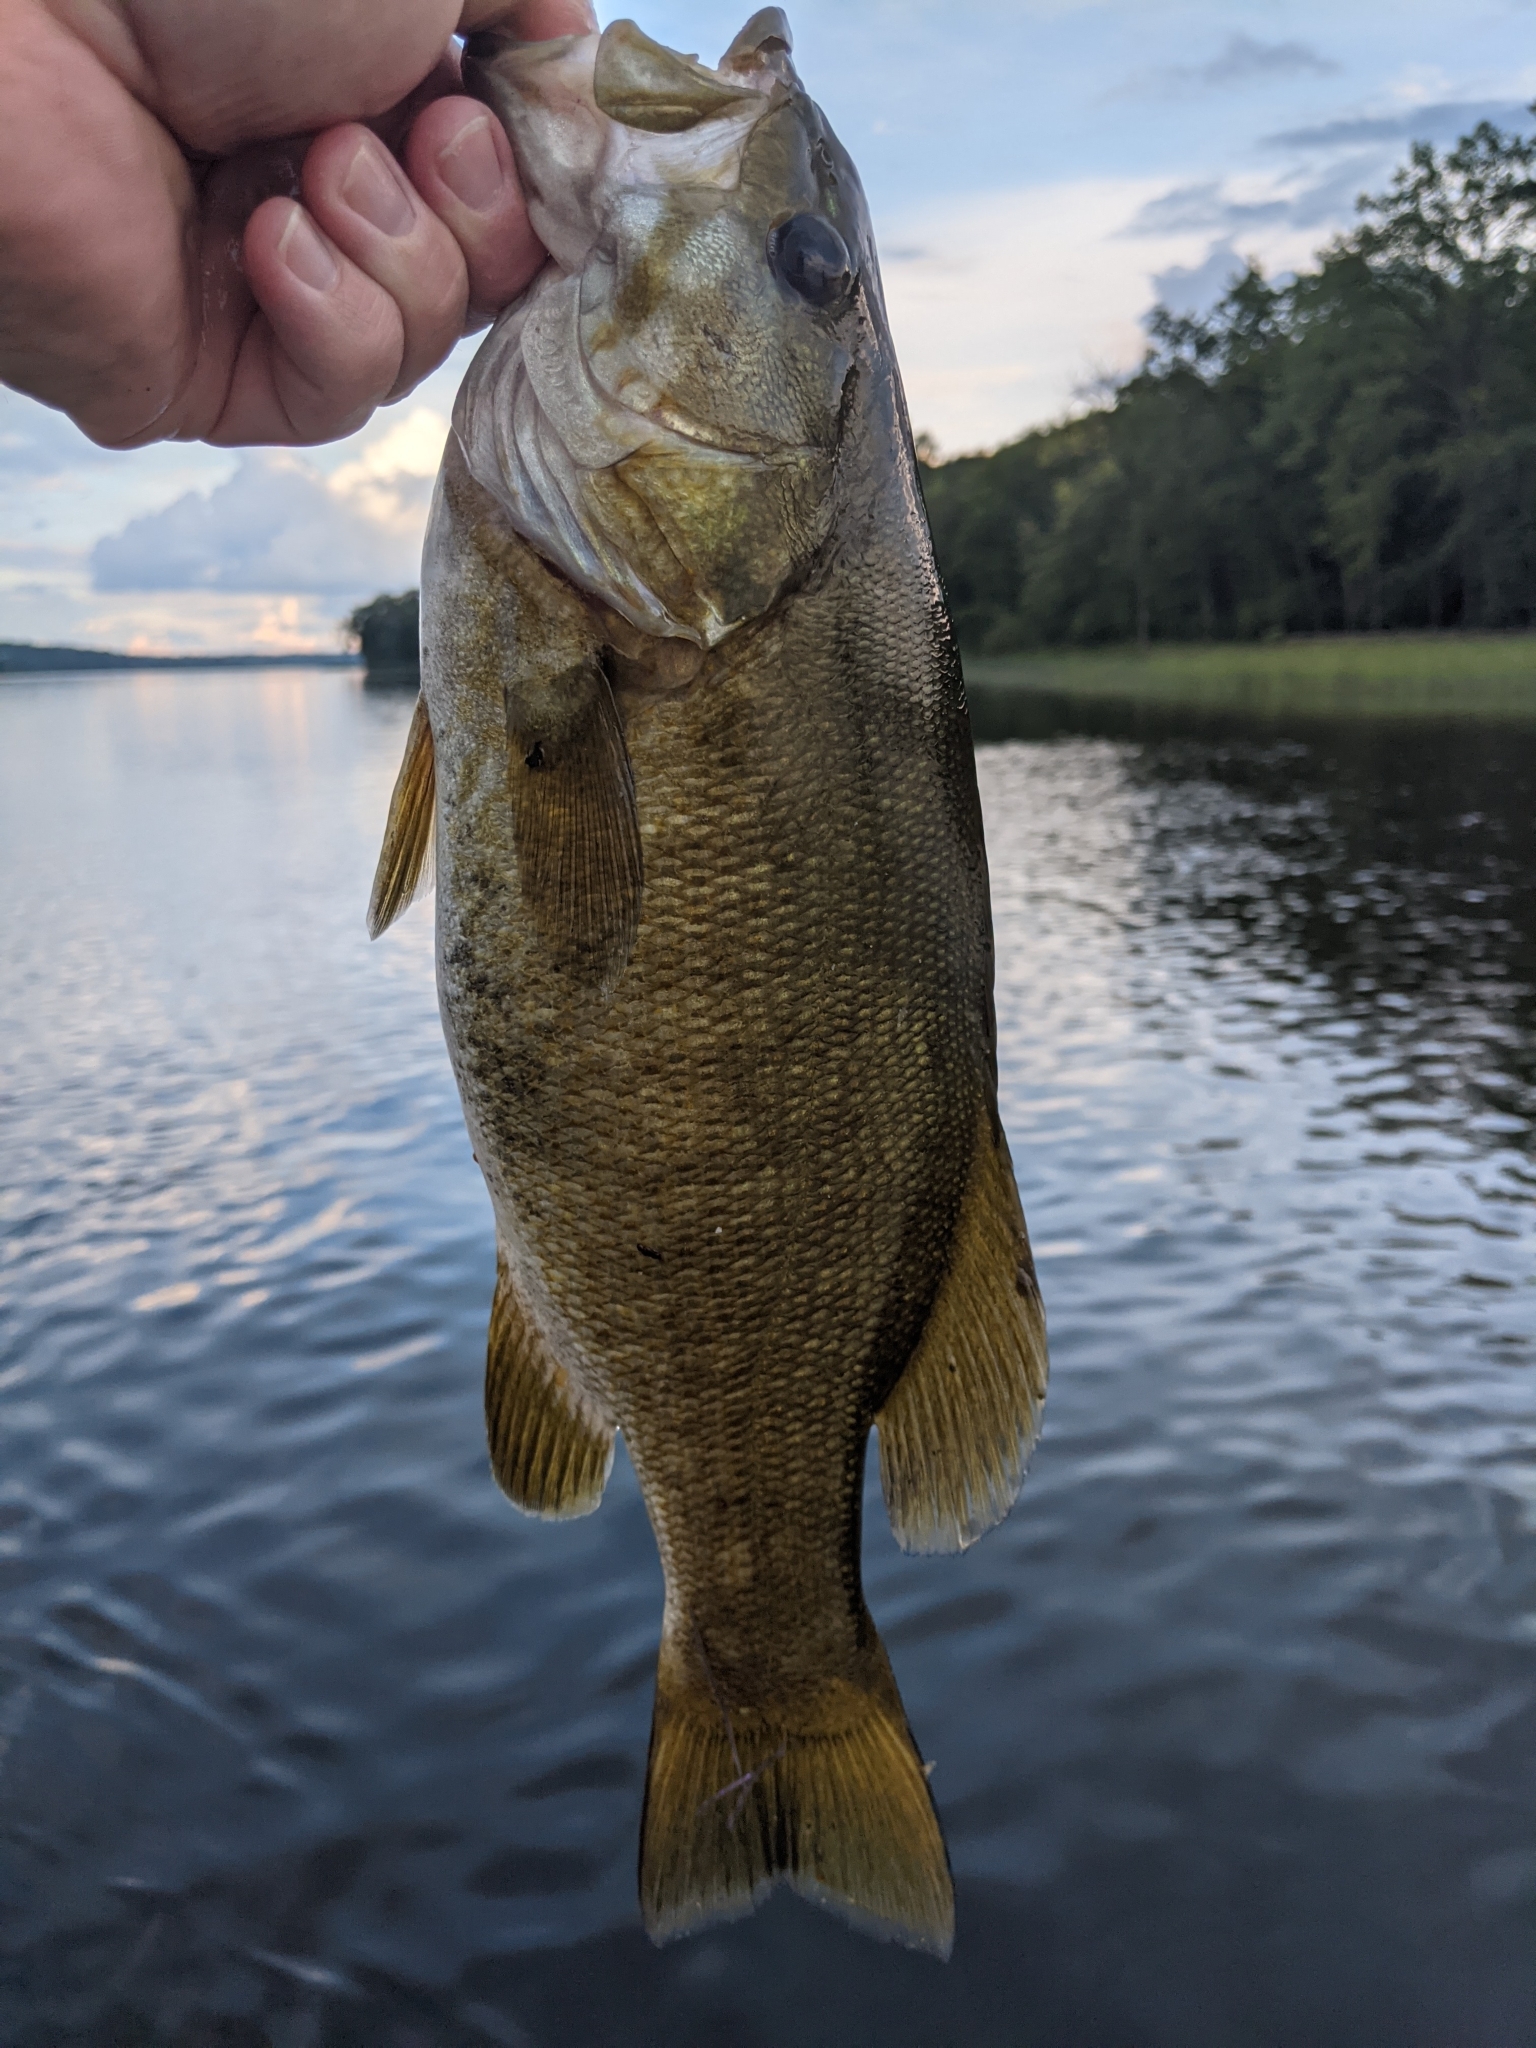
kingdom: Animalia
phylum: Chordata
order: Perciformes
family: Centrarchidae
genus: Micropterus
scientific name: Micropterus dolomieu
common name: Smallmouth bass
